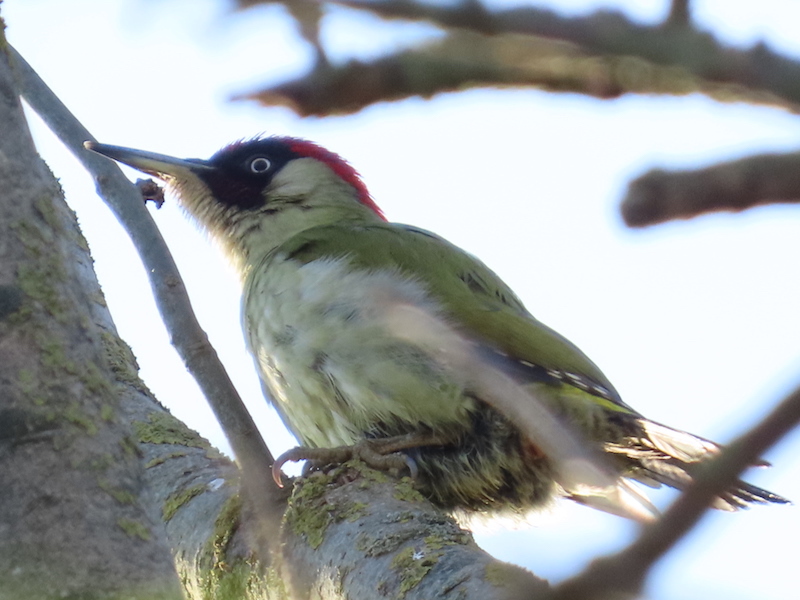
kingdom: Animalia
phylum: Chordata
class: Aves
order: Piciformes
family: Picidae
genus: Picus
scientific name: Picus viridis
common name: European green woodpecker
